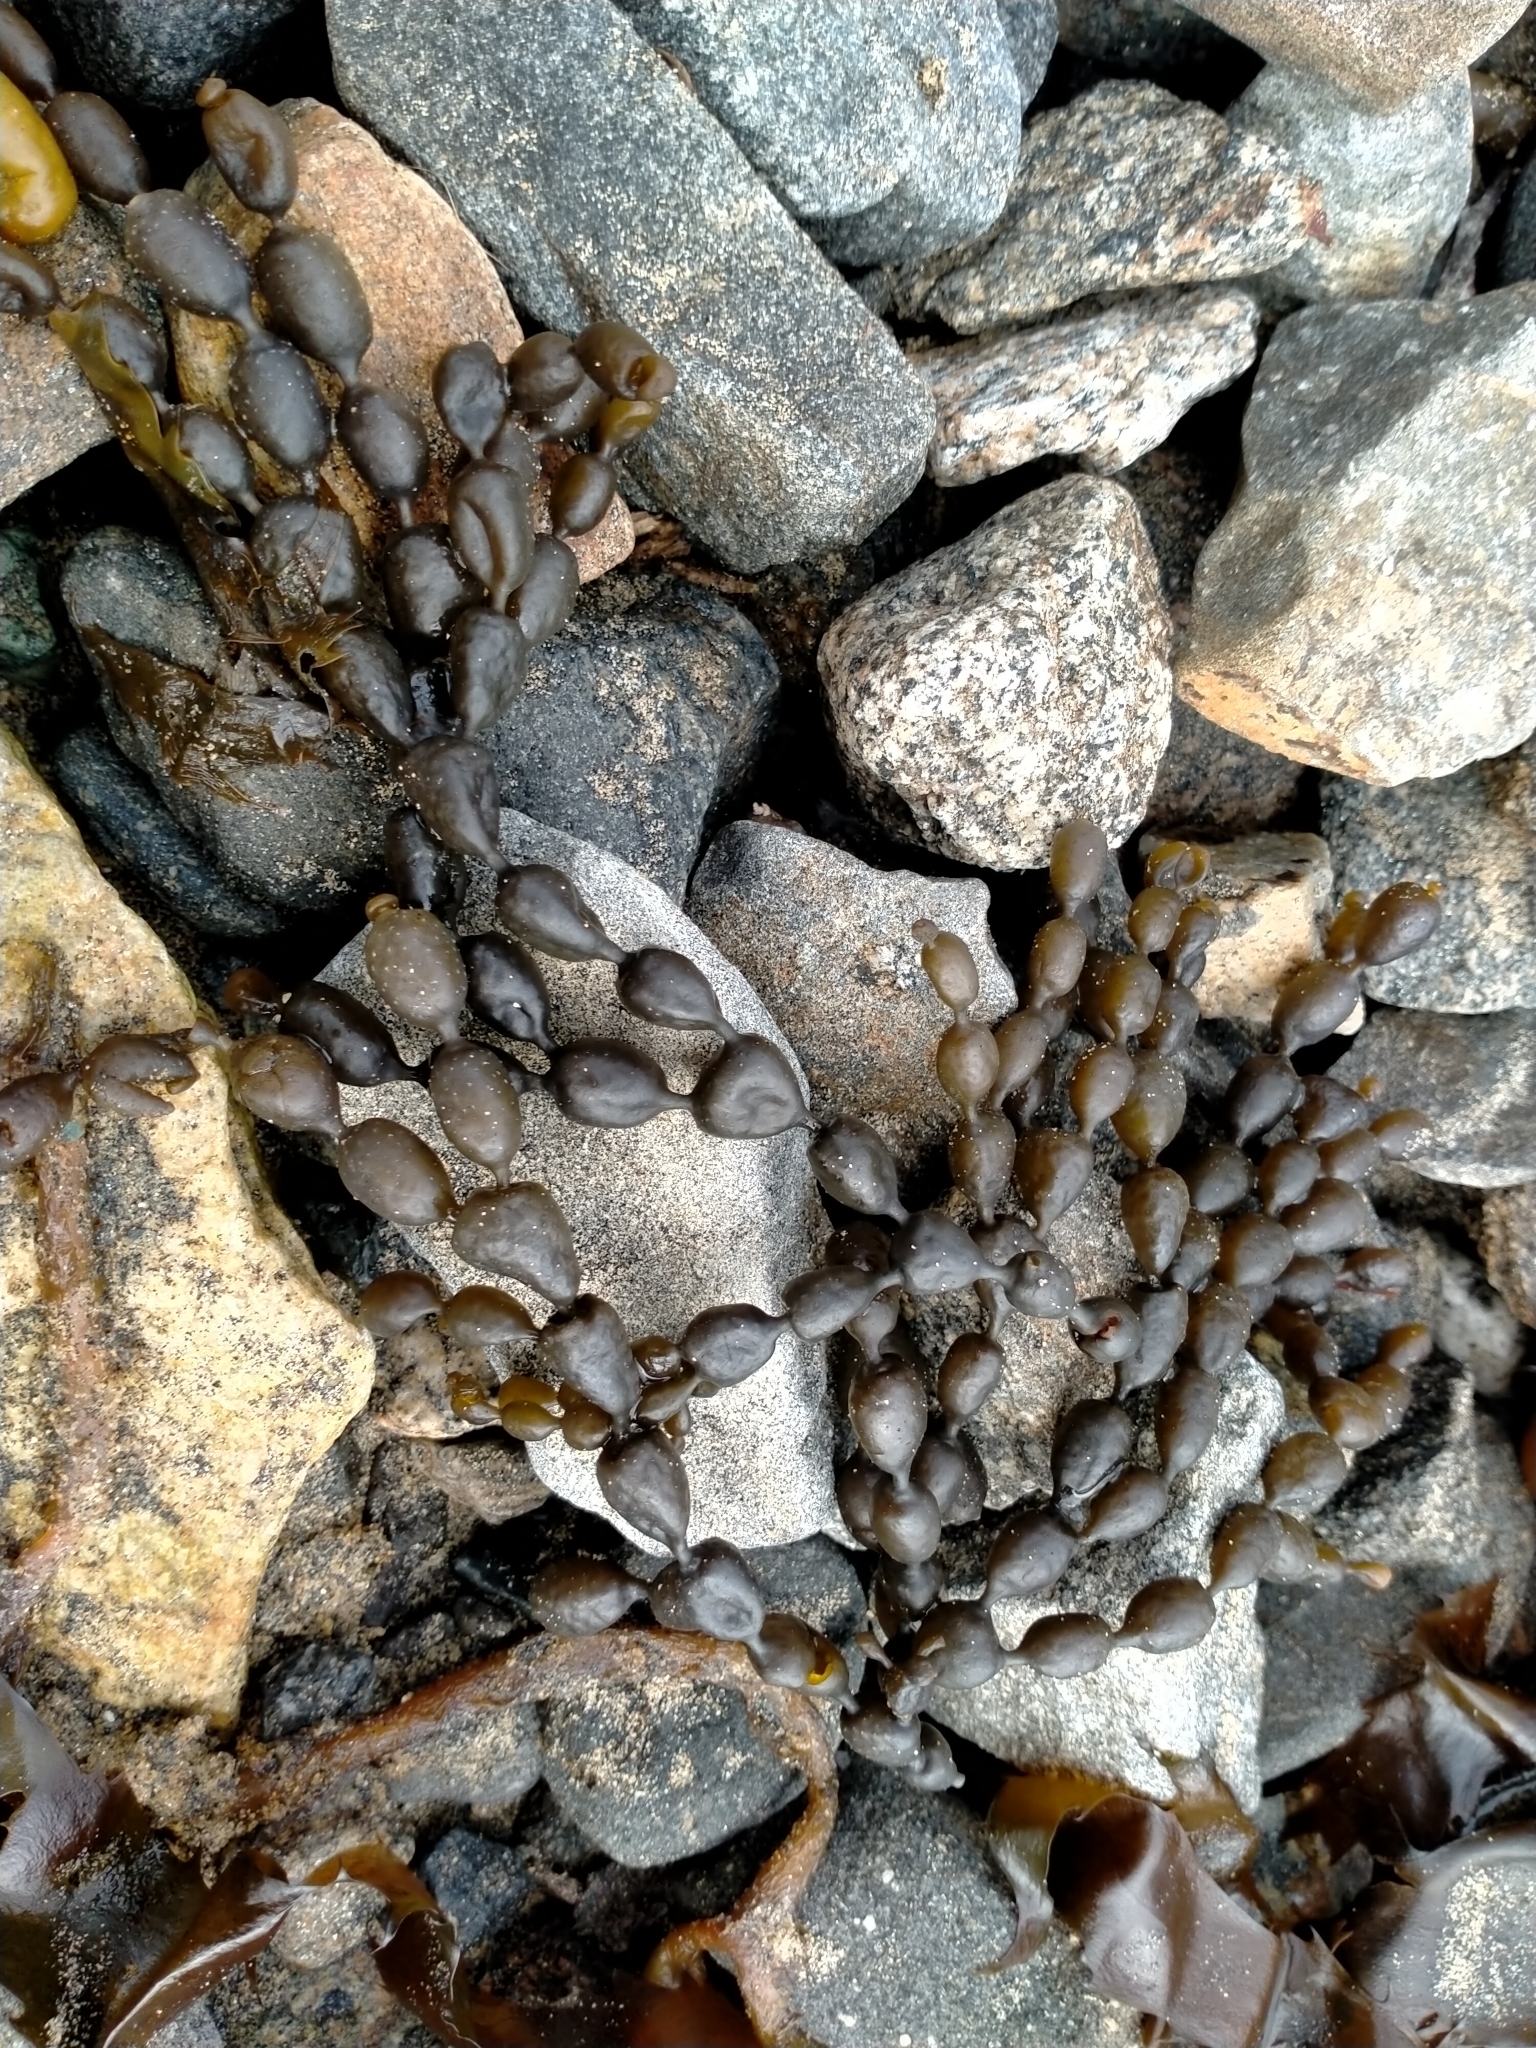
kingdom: Chromista
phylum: Ochrophyta
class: Phaeophyceae
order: Fucales
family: Hormosiraceae
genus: Hormosira
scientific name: Hormosira banksii
